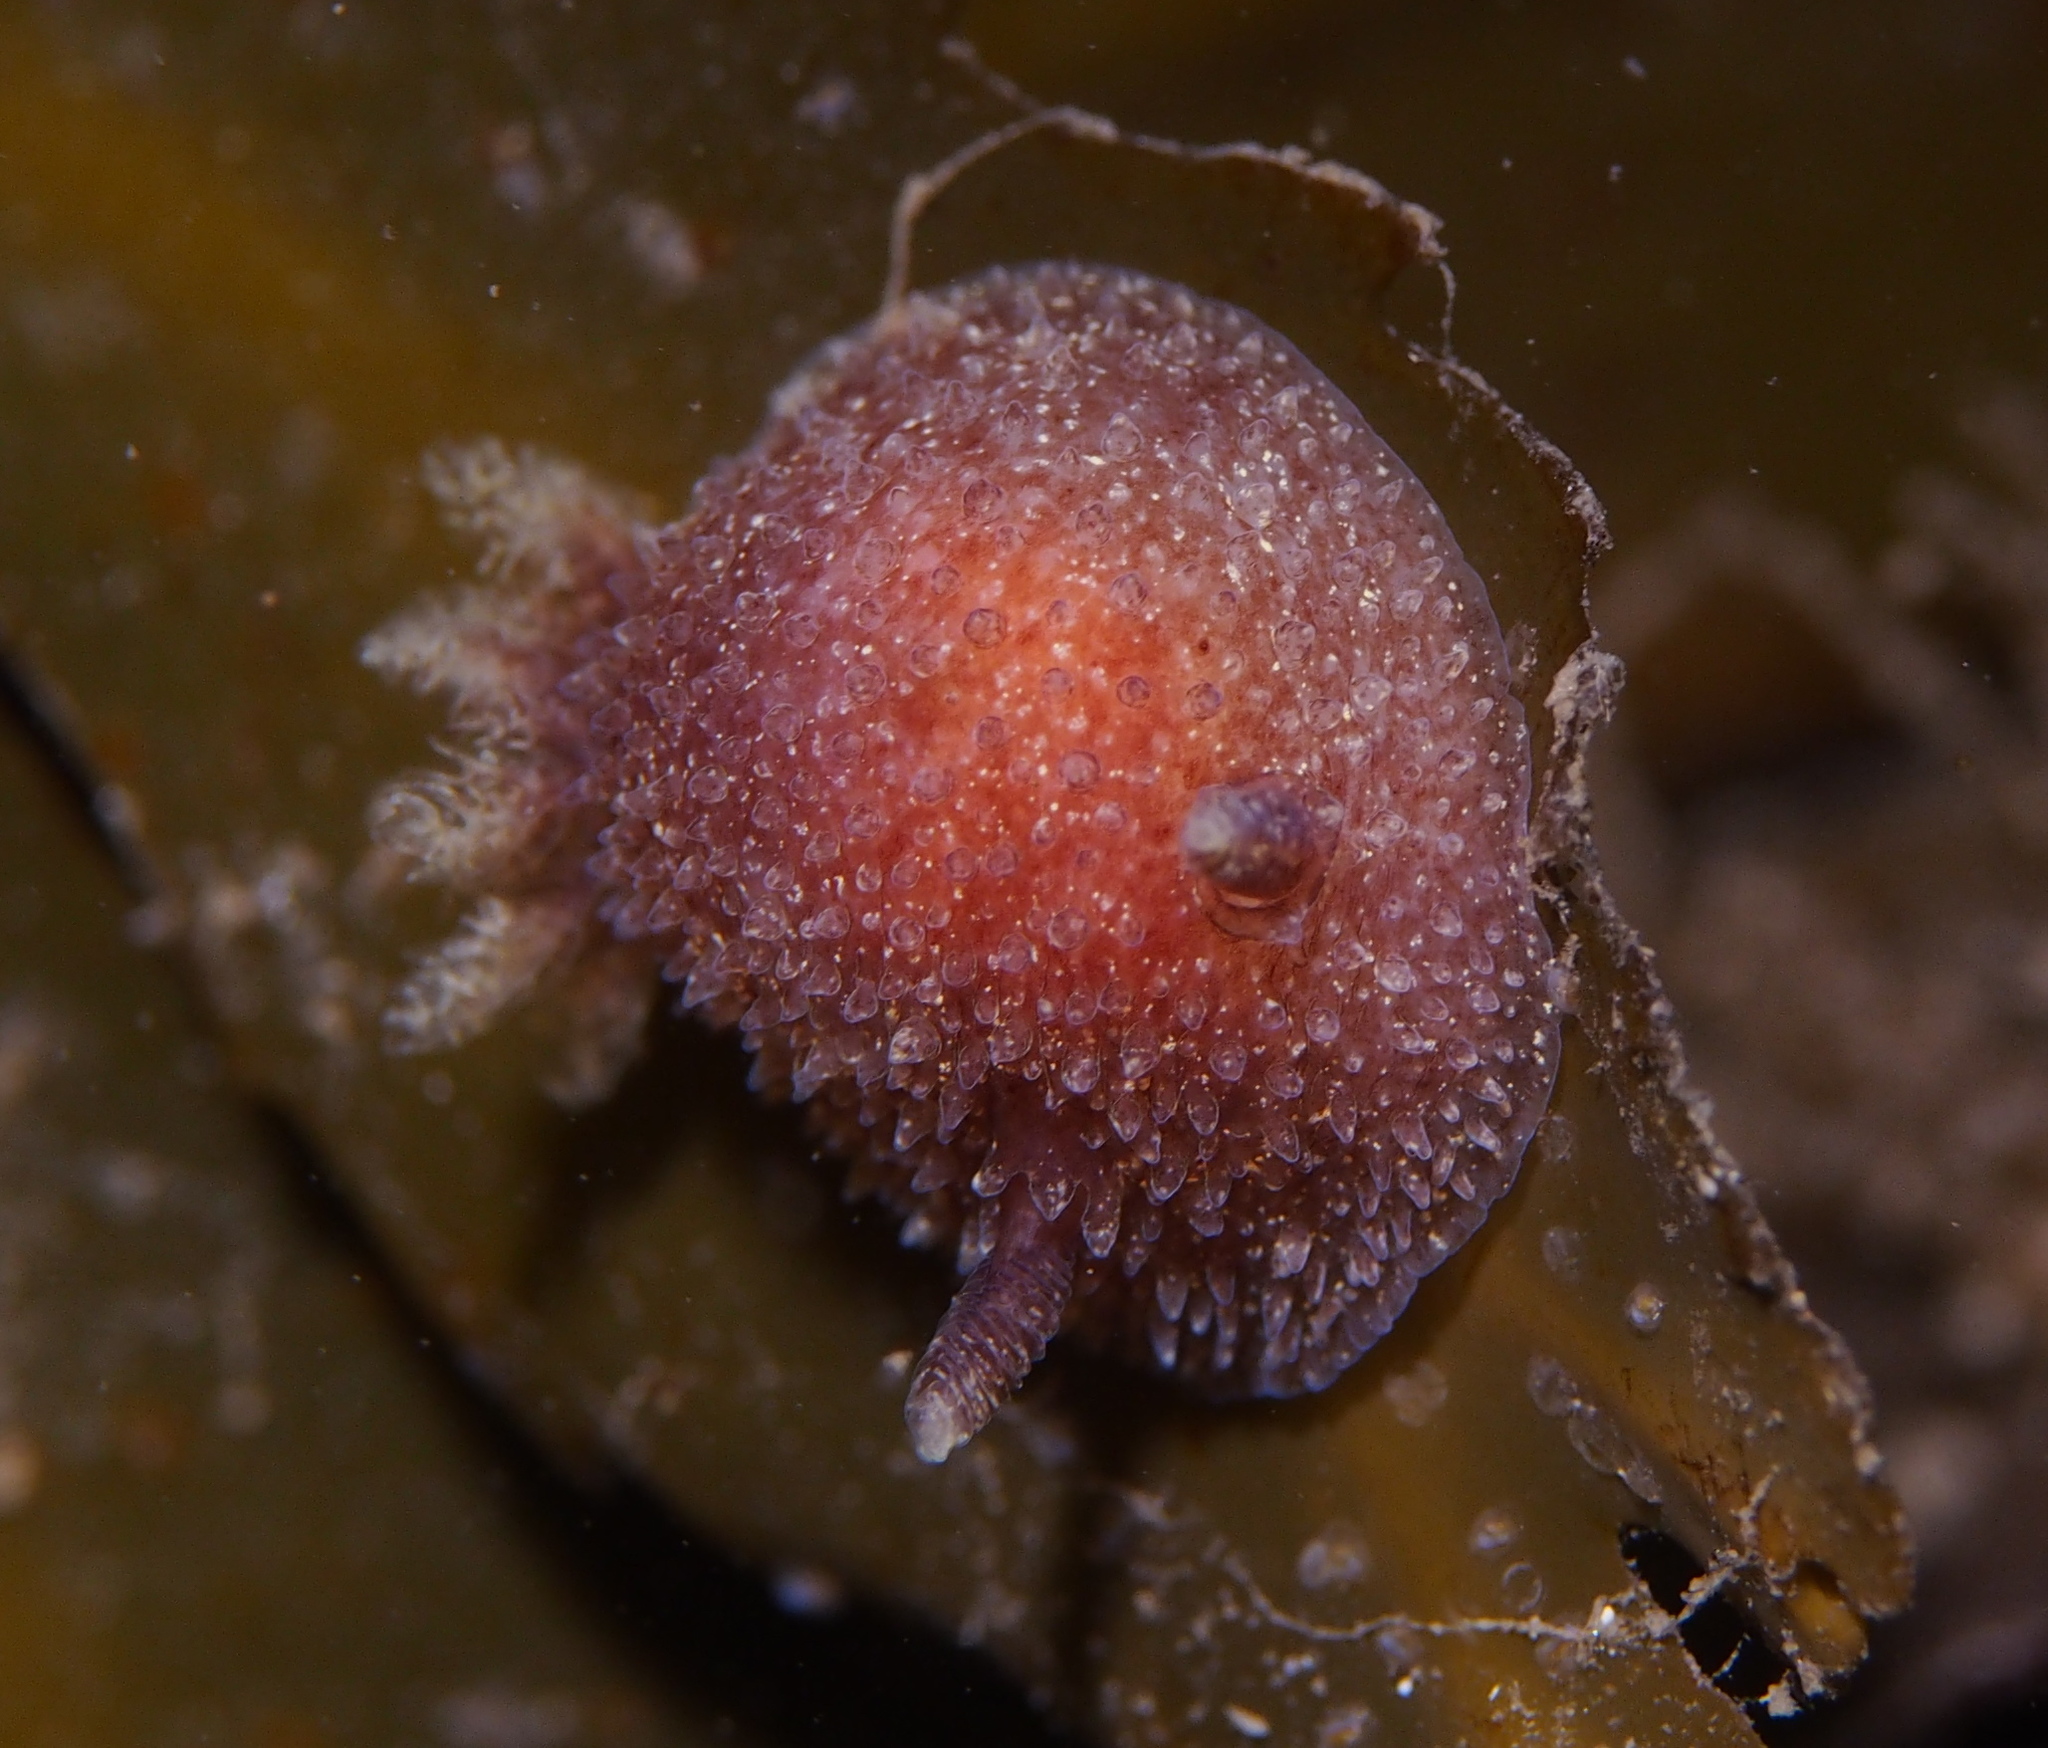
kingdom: Animalia
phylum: Mollusca
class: Gastropoda
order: Nudibranchia
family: Onchidorididae
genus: Acanthodoris
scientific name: Acanthodoris pilosa
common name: Hairy spiny doris
